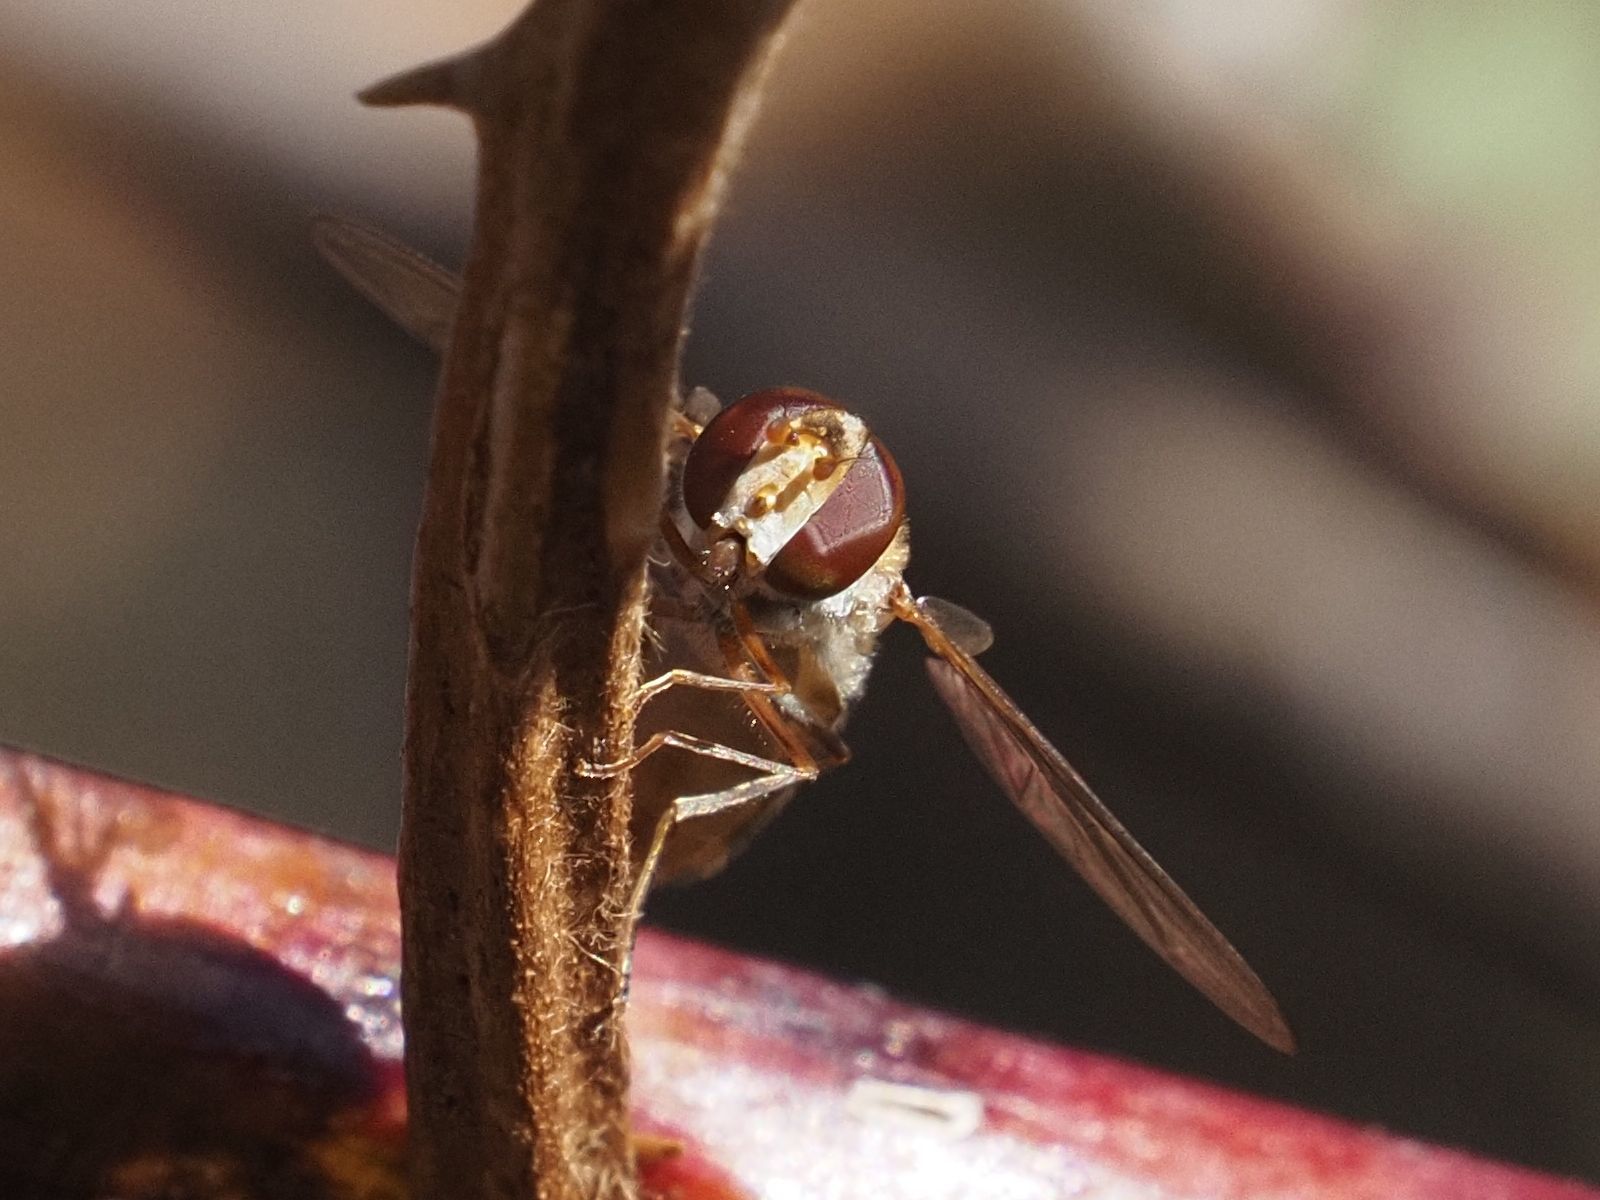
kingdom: Animalia
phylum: Arthropoda
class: Insecta
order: Diptera
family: Syrphidae
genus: Episyrphus
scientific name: Episyrphus balteatus
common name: Marmalade hoverfly
